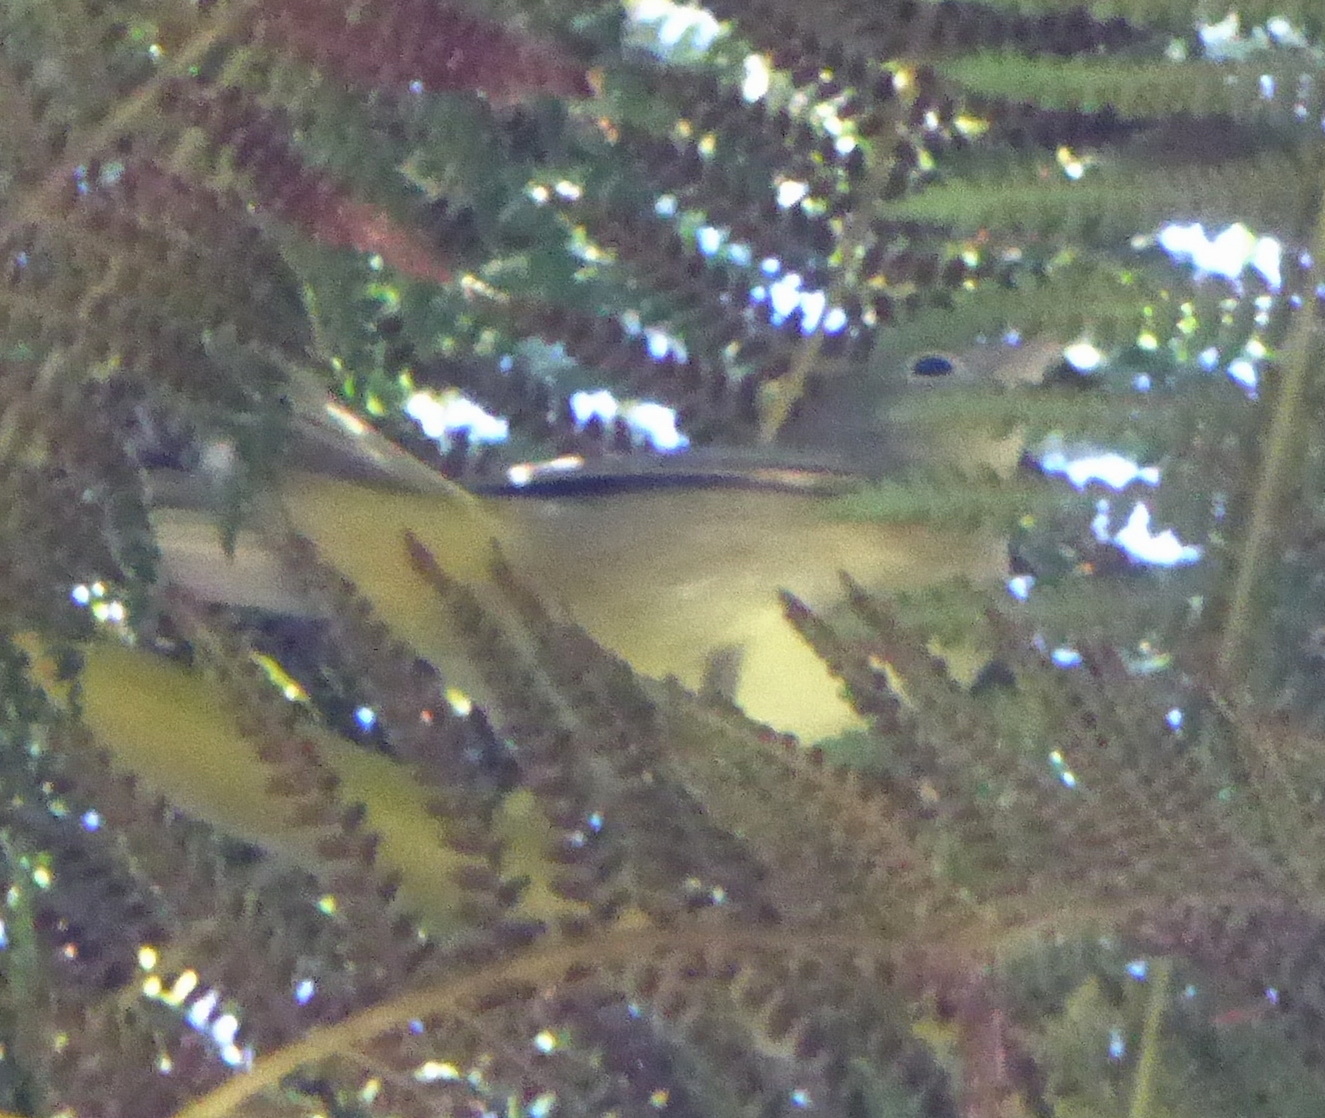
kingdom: Animalia
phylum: Chordata
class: Aves
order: Passeriformes
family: Parulidae
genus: Leiothlypis
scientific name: Leiothlypis ruficapilla
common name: Nashville warbler
